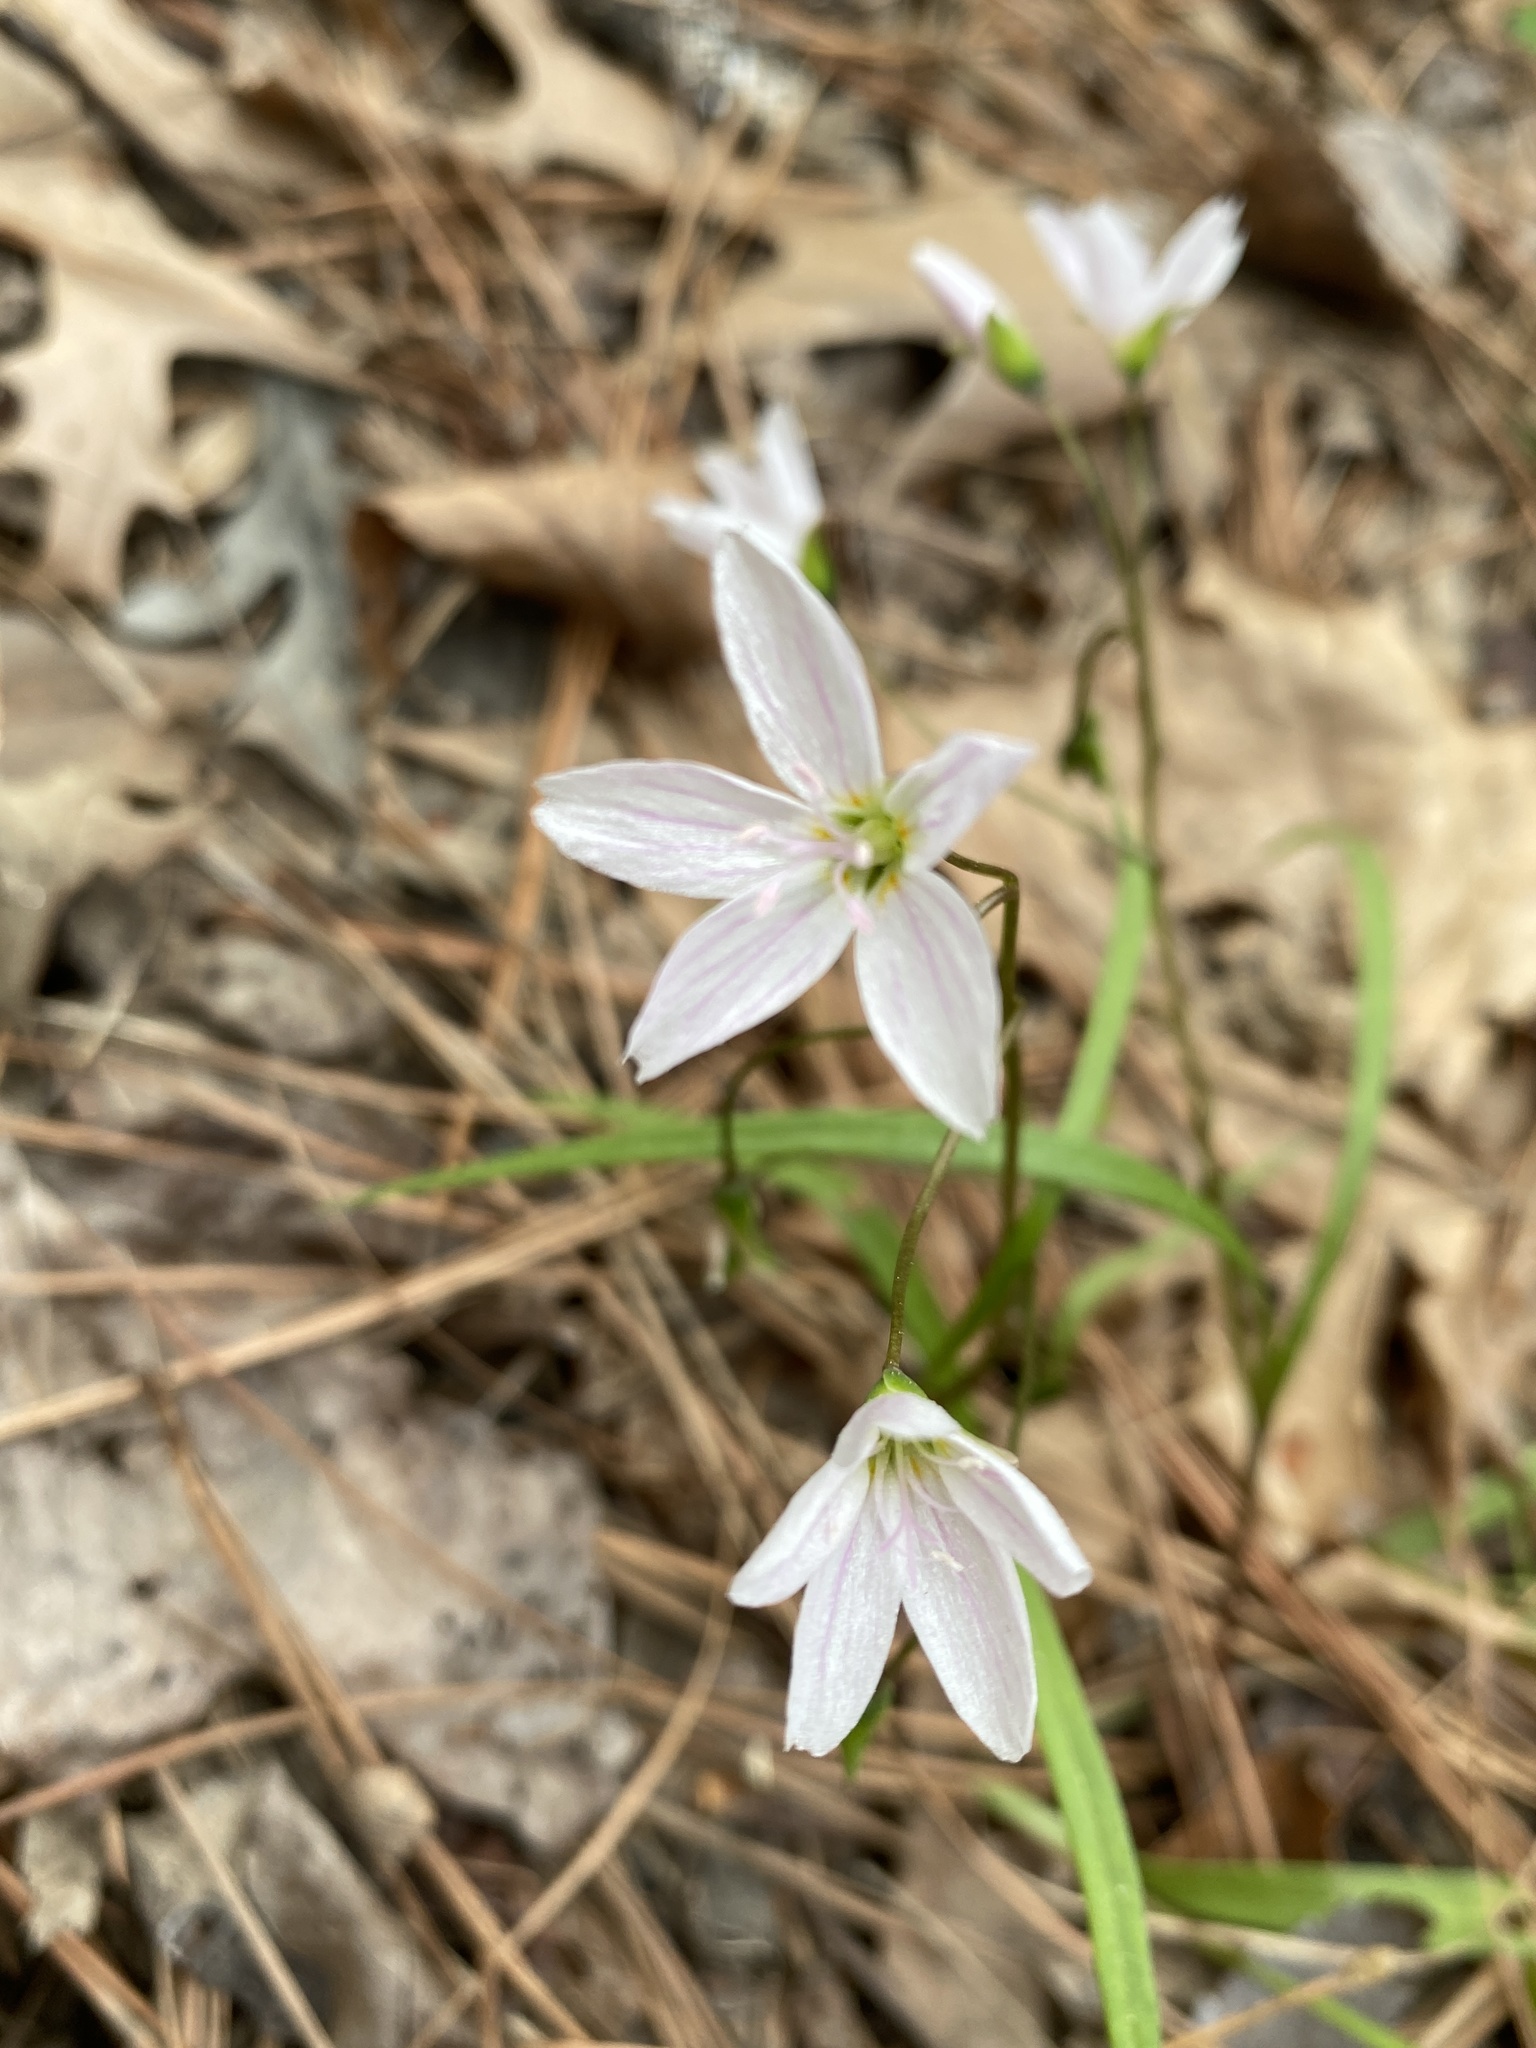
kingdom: Plantae
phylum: Tracheophyta
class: Magnoliopsida
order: Caryophyllales
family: Montiaceae
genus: Claytonia
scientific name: Claytonia virginica
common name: Virginia springbeauty
